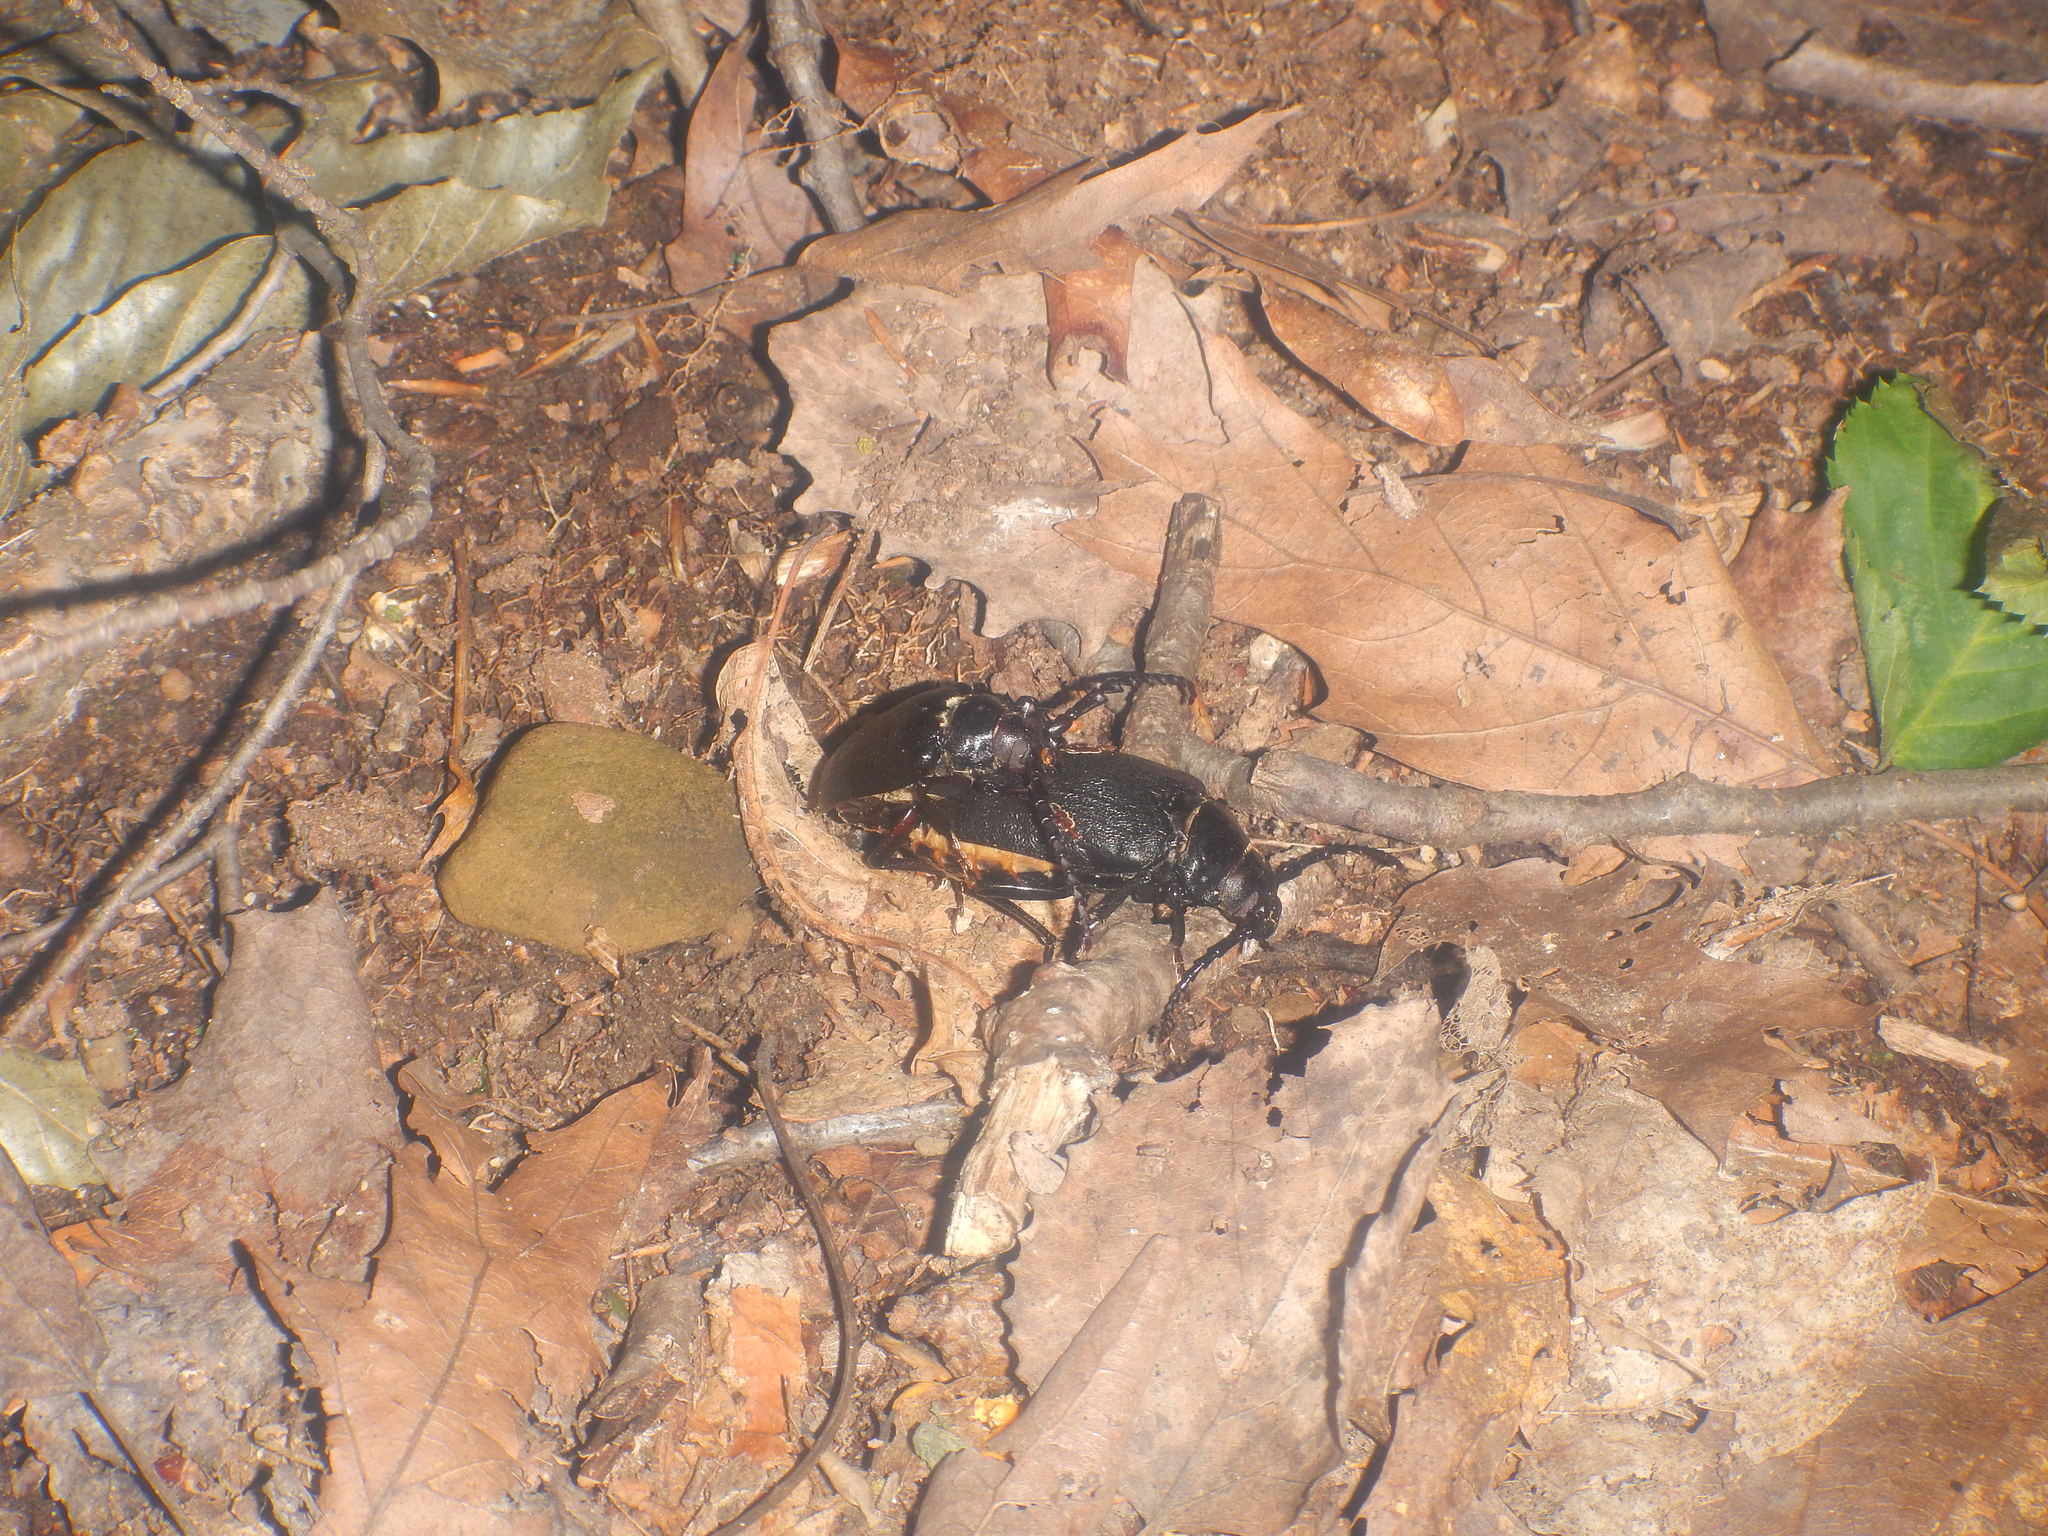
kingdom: Animalia
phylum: Arthropoda
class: Insecta
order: Coleoptera
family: Cerambycidae
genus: Prionus
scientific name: Prionus laticollis
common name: Broad necked prionus
